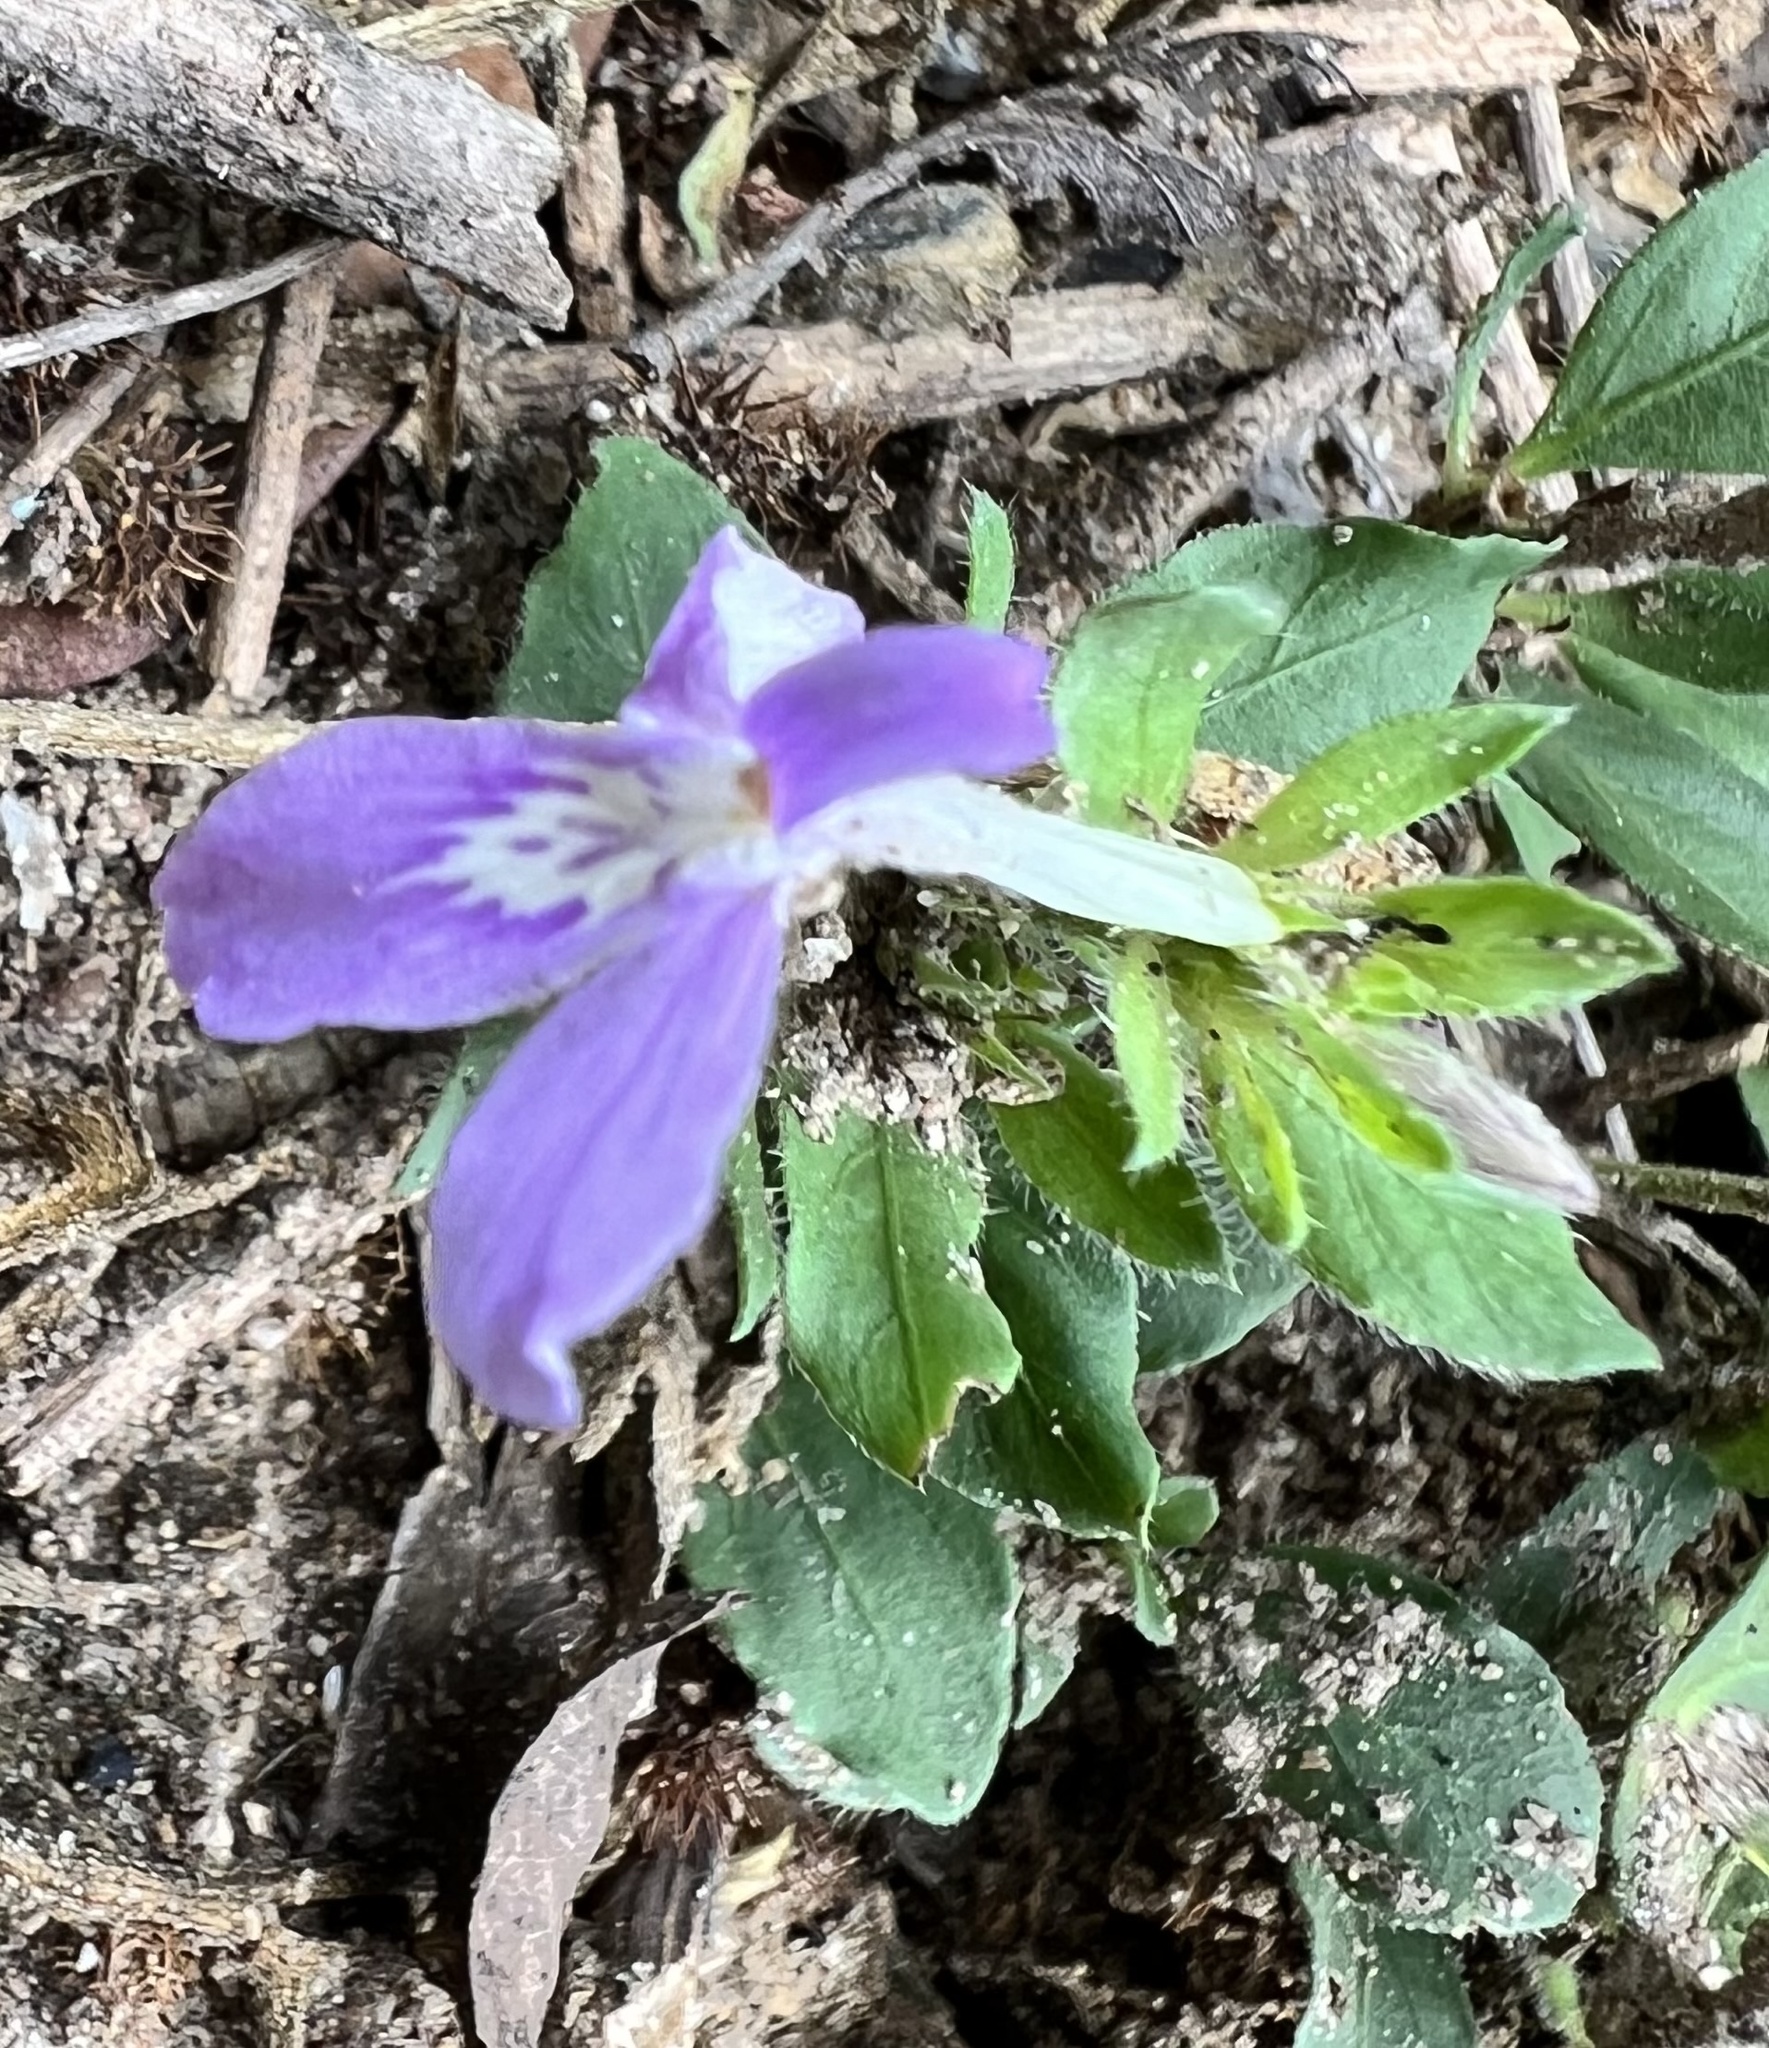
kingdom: Plantae
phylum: Tracheophyta
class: Magnoliopsida
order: Lamiales
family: Acanthaceae
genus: Justicia
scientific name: Justicia pilosella
